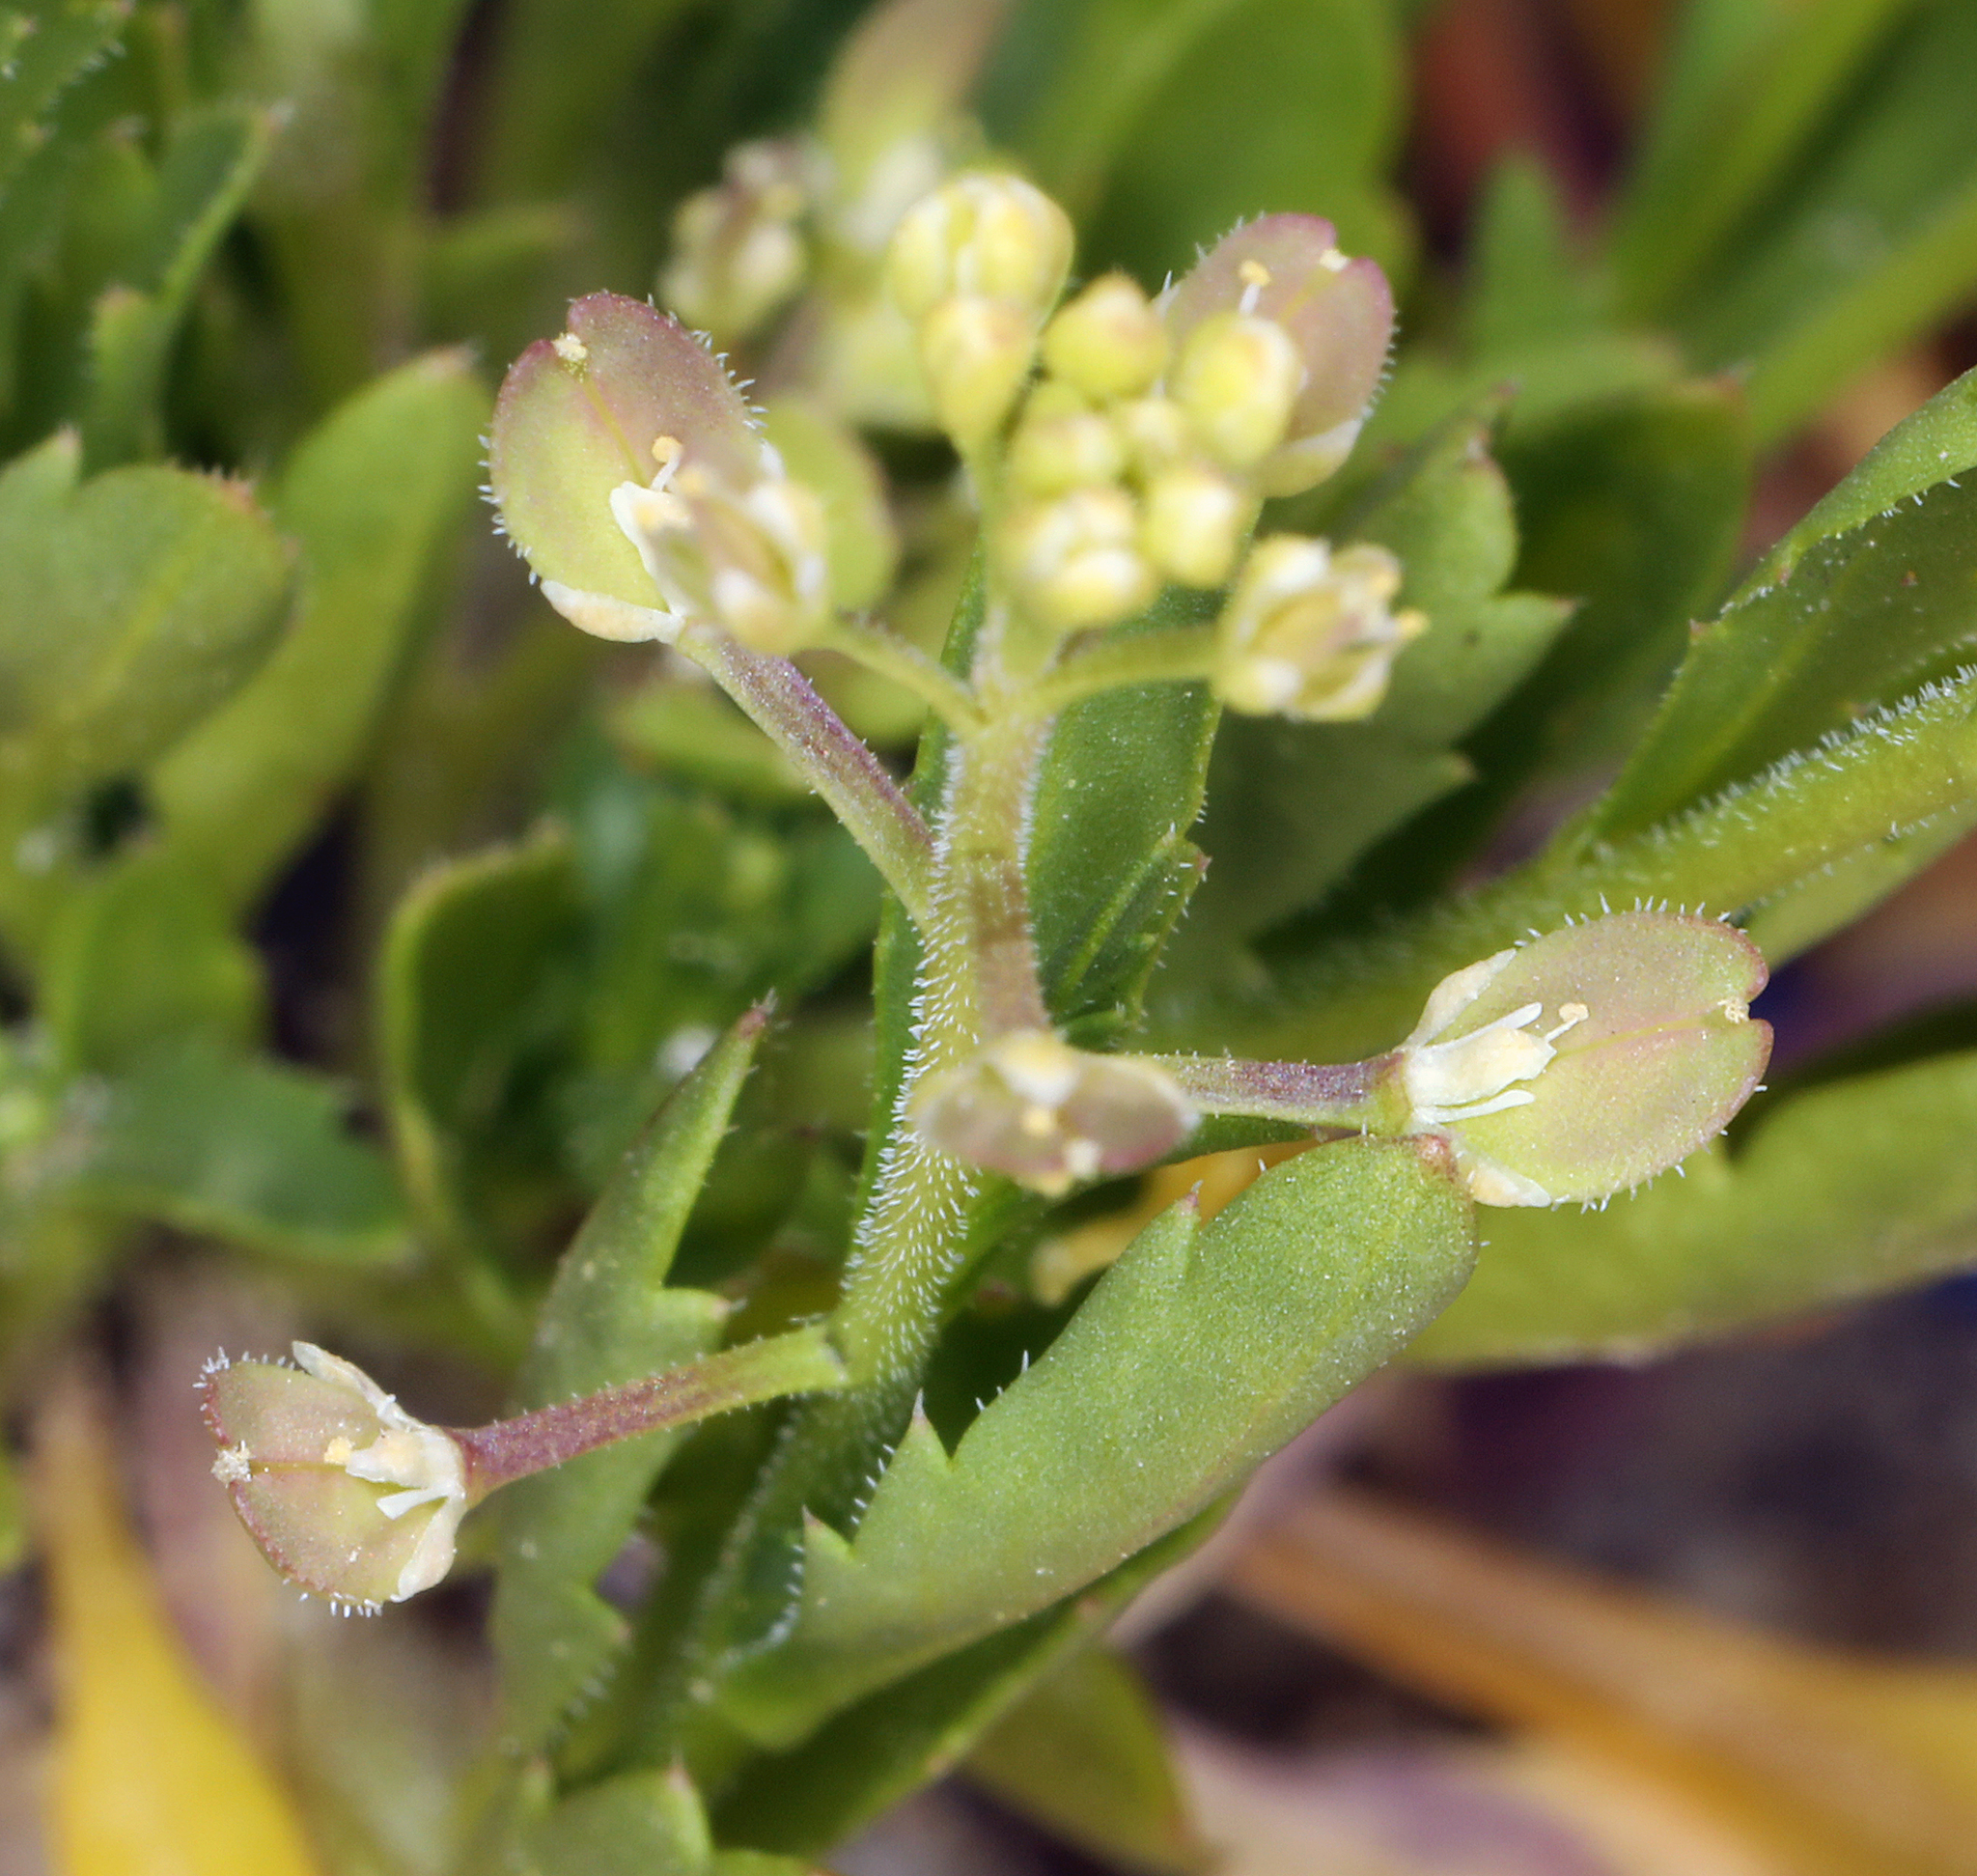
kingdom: Plantae
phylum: Tracheophyta
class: Magnoliopsida
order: Brassicales
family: Brassicaceae
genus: Lepidium
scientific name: Lepidium lasiocarpum
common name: Hairy-pod pepperwort
